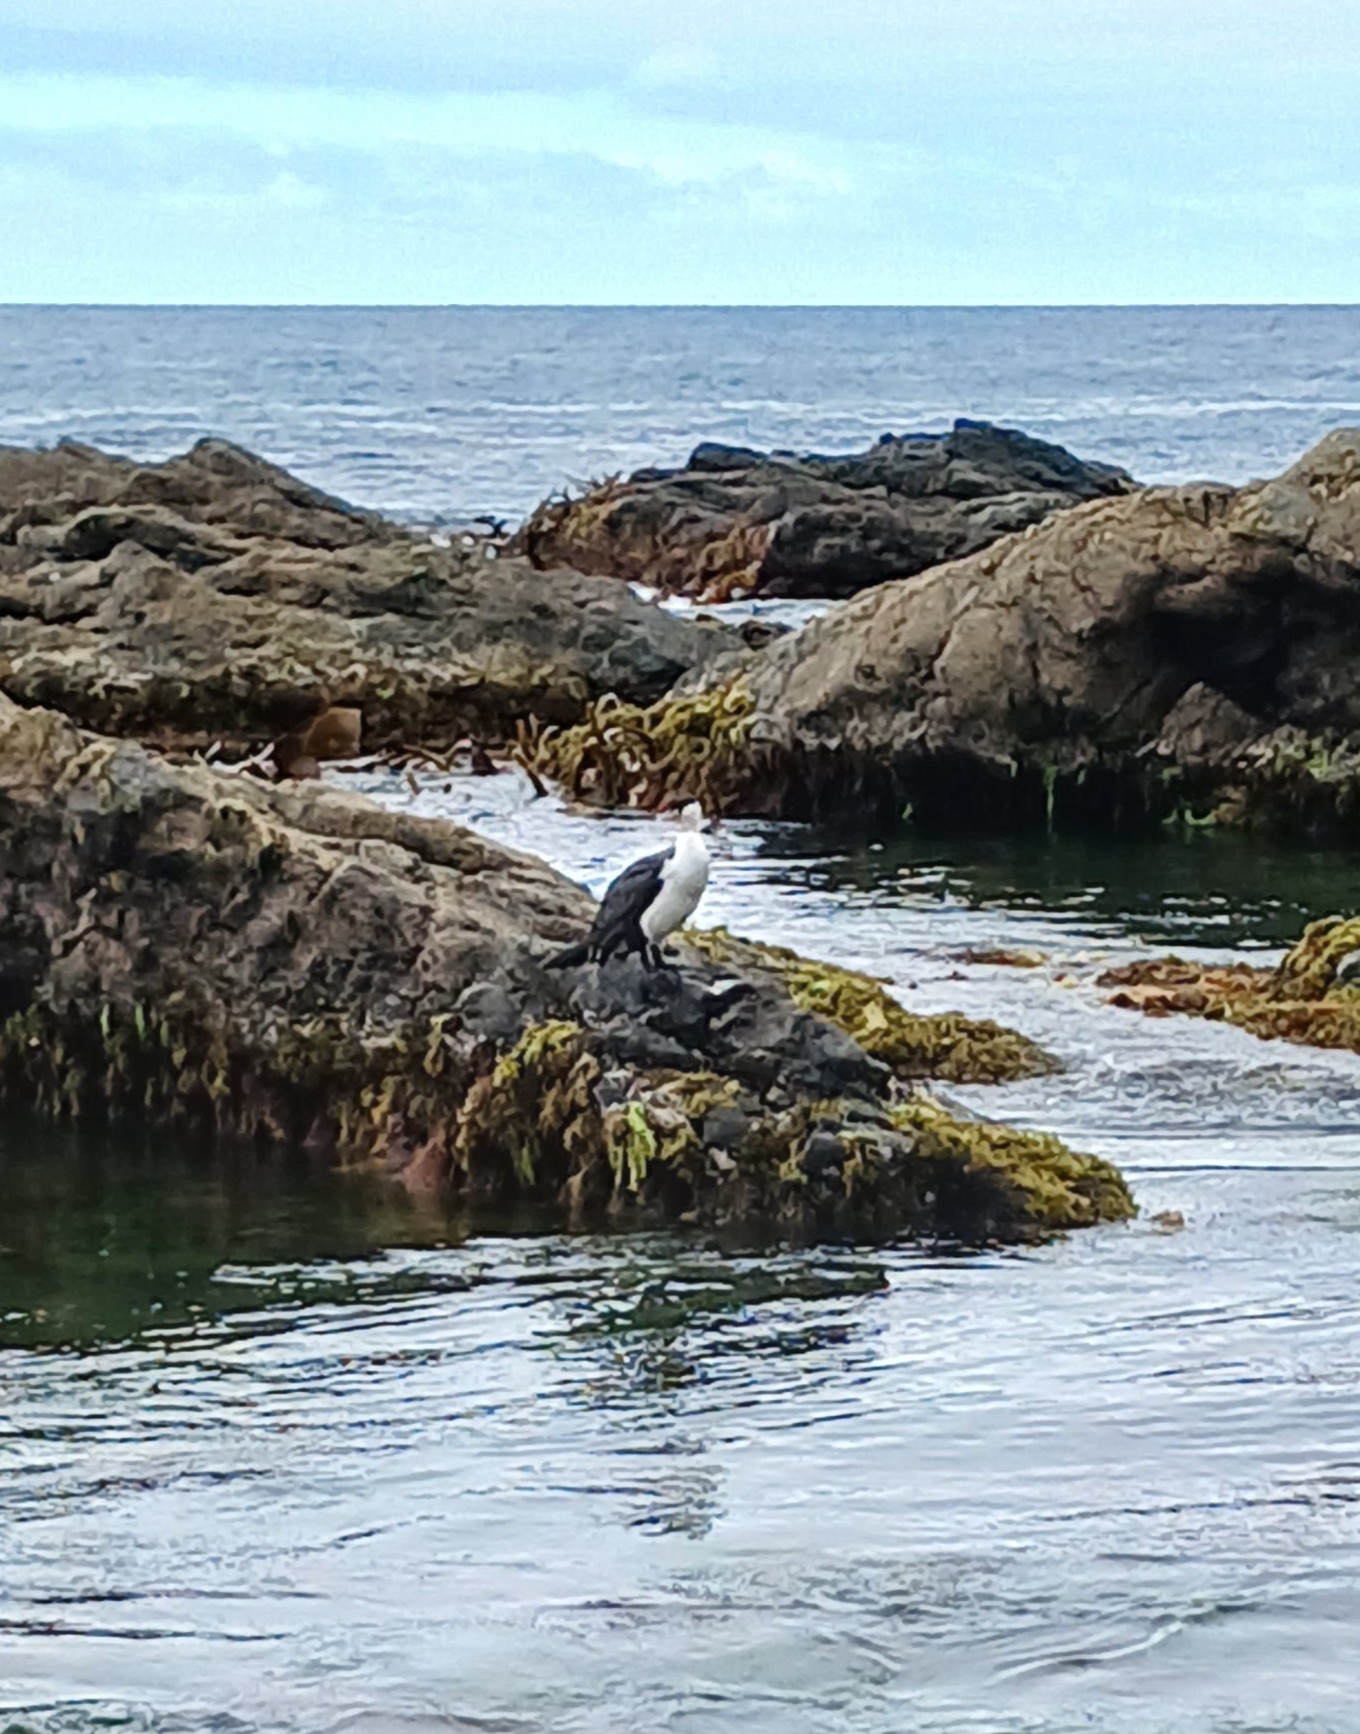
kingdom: Animalia
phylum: Chordata
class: Aves
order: Suliformes
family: Phalacrocoracidae
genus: Phalacrocorax
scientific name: Phalacrocorax varius
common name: Pied cormorant
